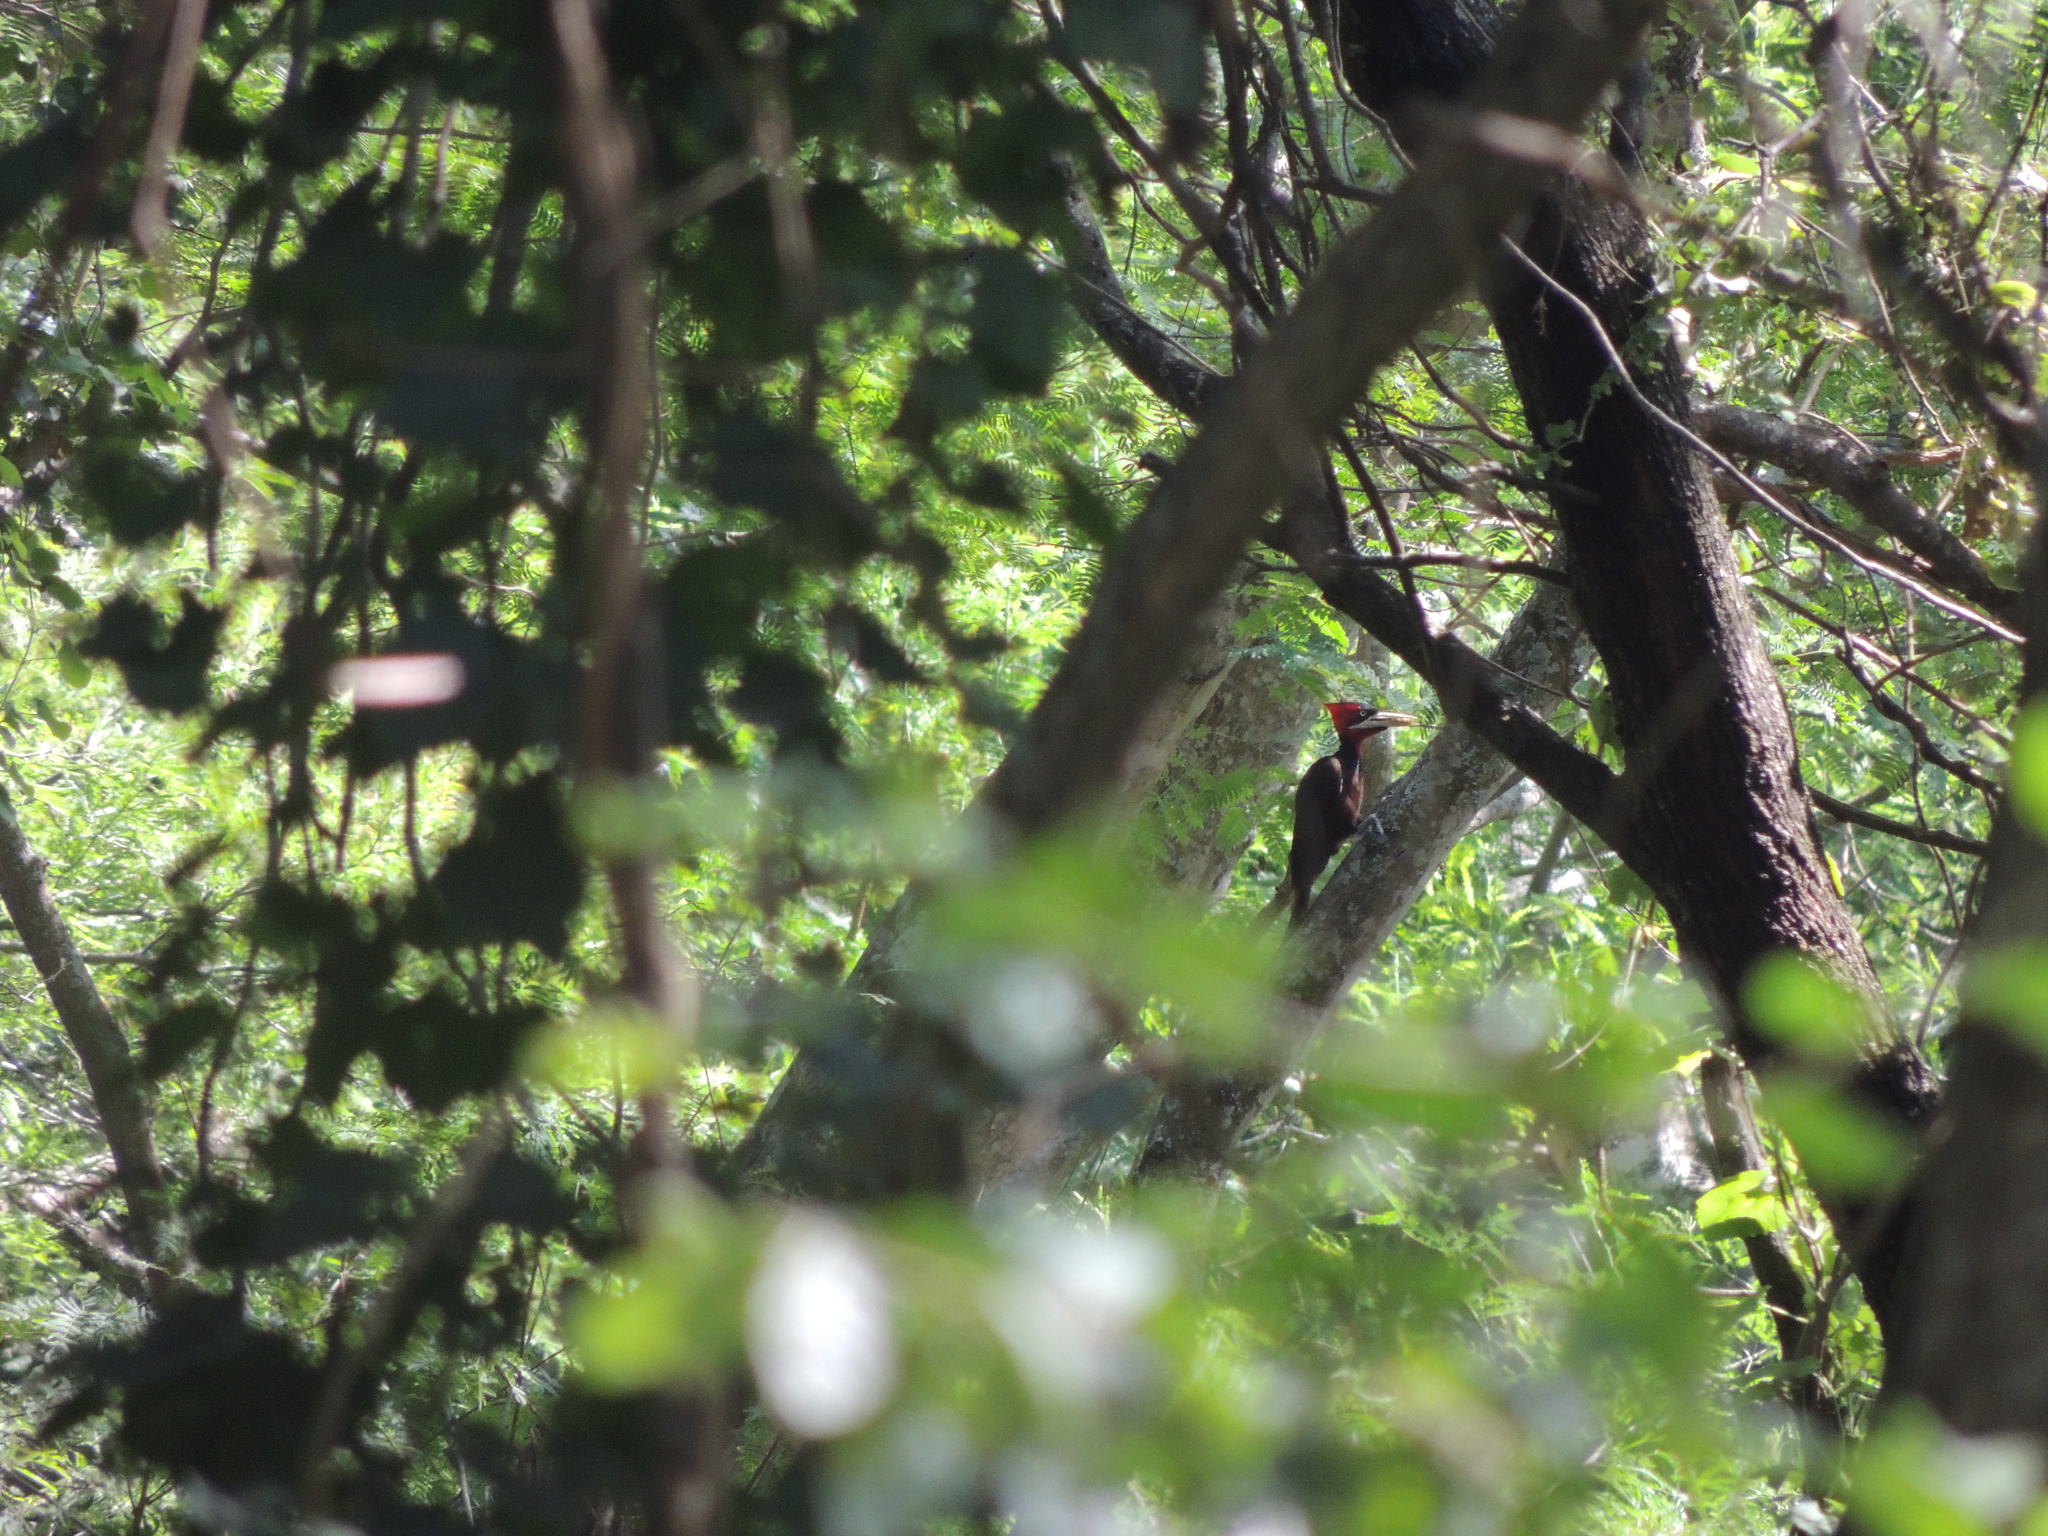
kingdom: Animalia
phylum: Chordata
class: Aves
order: Piciformes
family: Picidae
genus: Campephilus
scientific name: Campephilus leucopogon
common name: Cream-backed woodpecker
